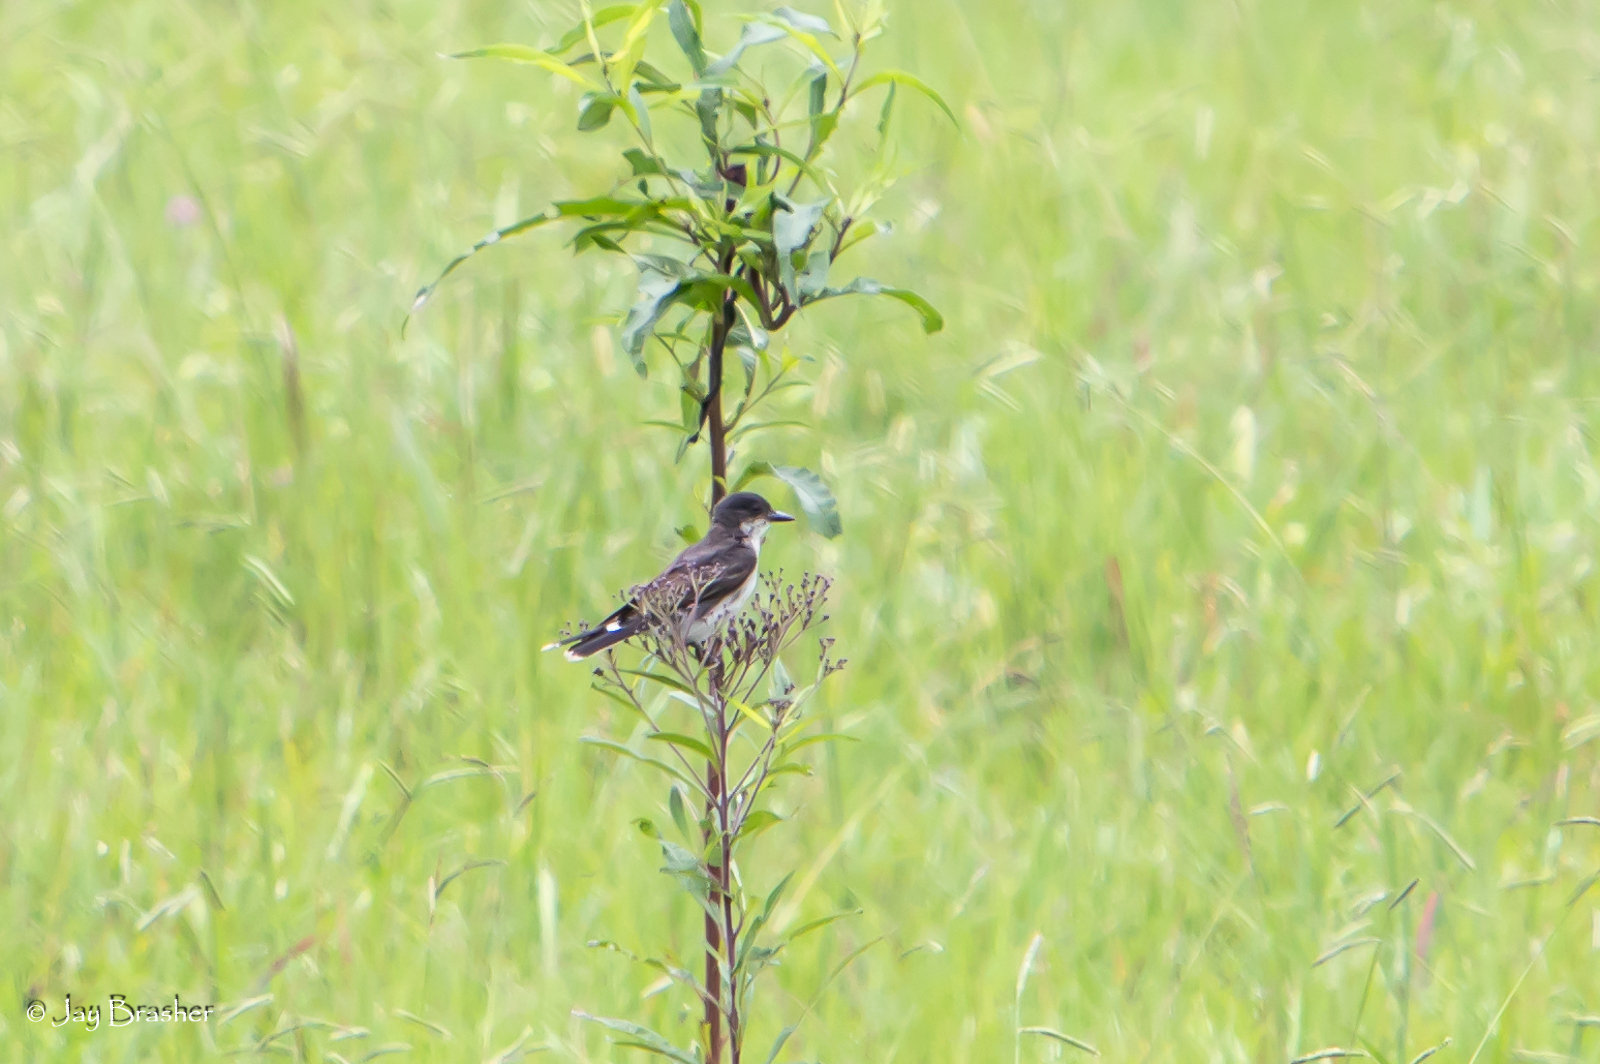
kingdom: Animalia
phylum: Chordata
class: Aves
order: Passeriformes
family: Tyrannidae
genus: Tyrannus
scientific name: Tyrannus tyrannus
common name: Eastern kingbird
